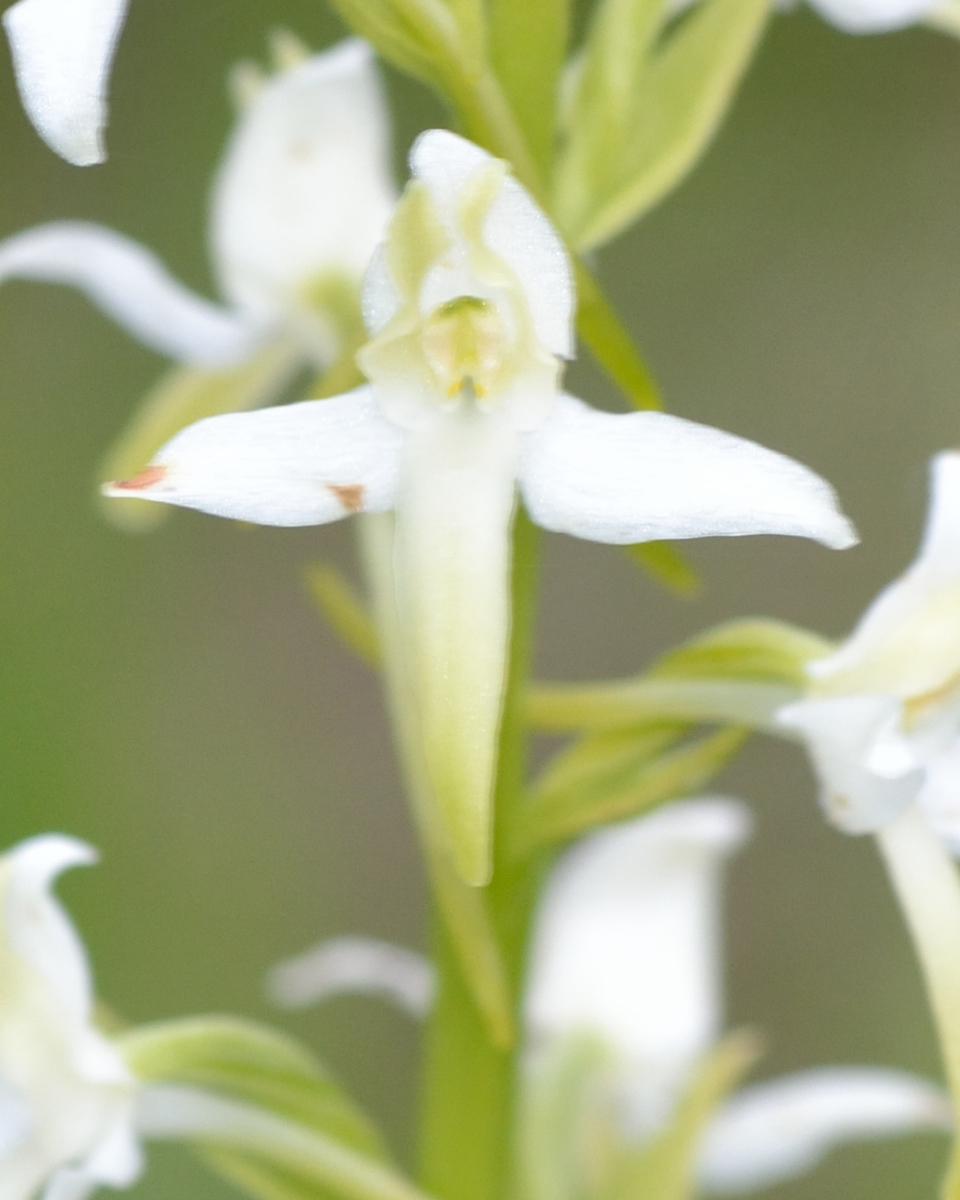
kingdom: Plantae
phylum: Tracheophyta
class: Liliopsida
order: Asparagales
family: Orchidaceae
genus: Platanthera
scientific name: Platanthera bifolia
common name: Lesser butterfly-orchid
